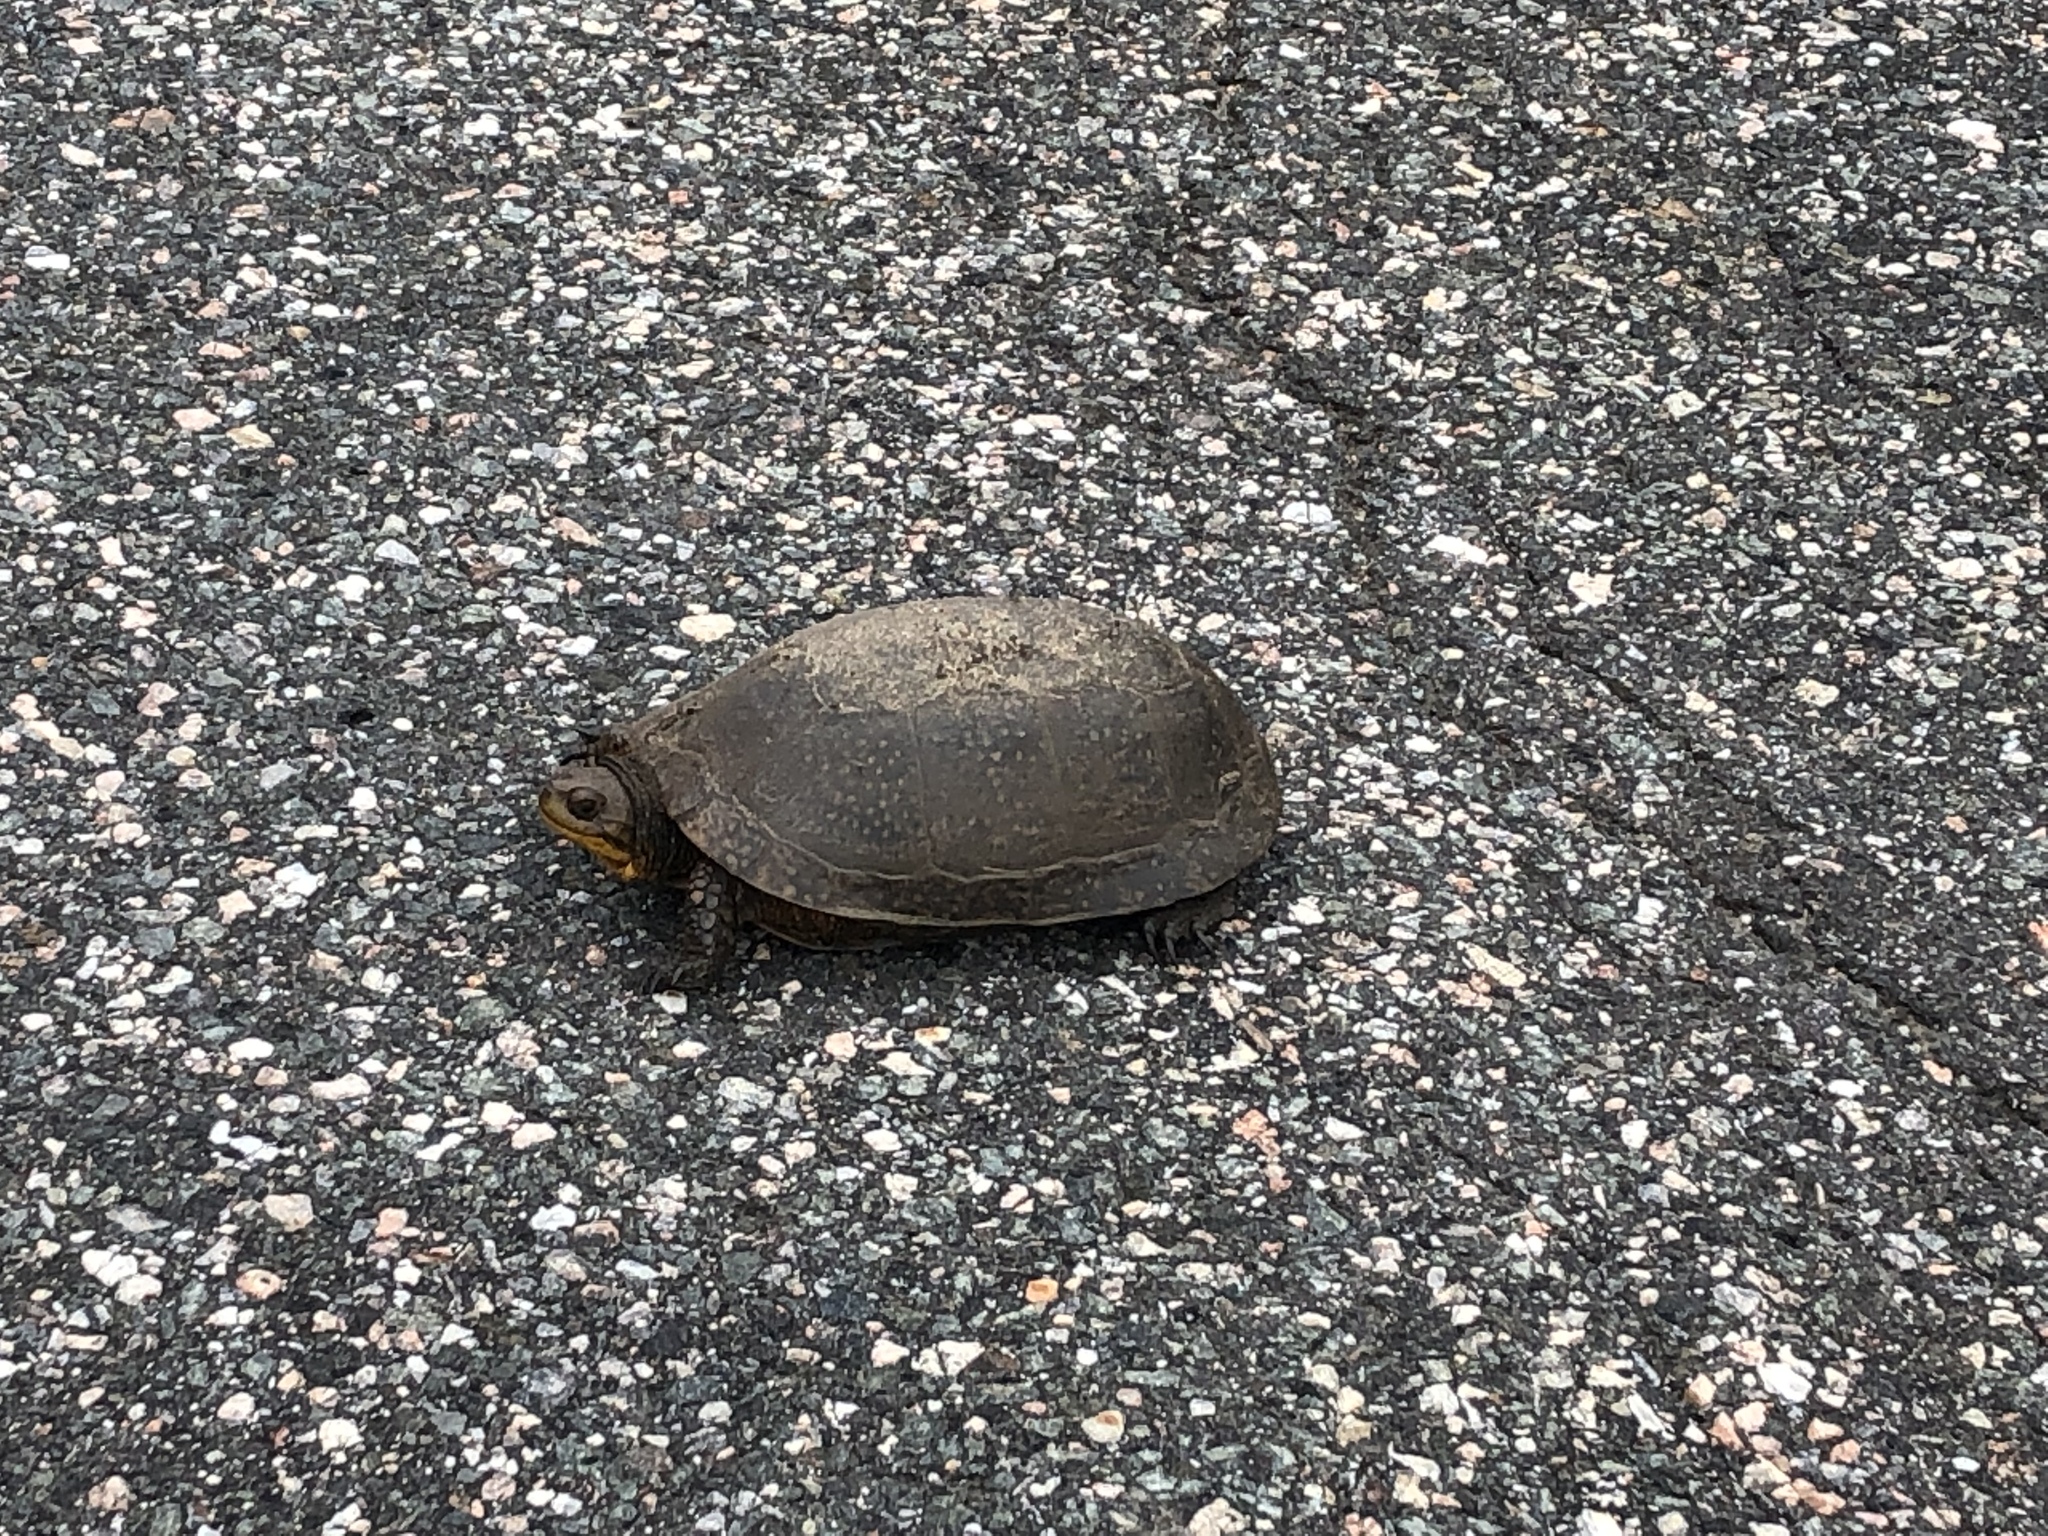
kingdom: Animalia
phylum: Chordata
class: Testudines
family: Emydidae
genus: Emys
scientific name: Emys blandingii
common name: Blanding's turtle
